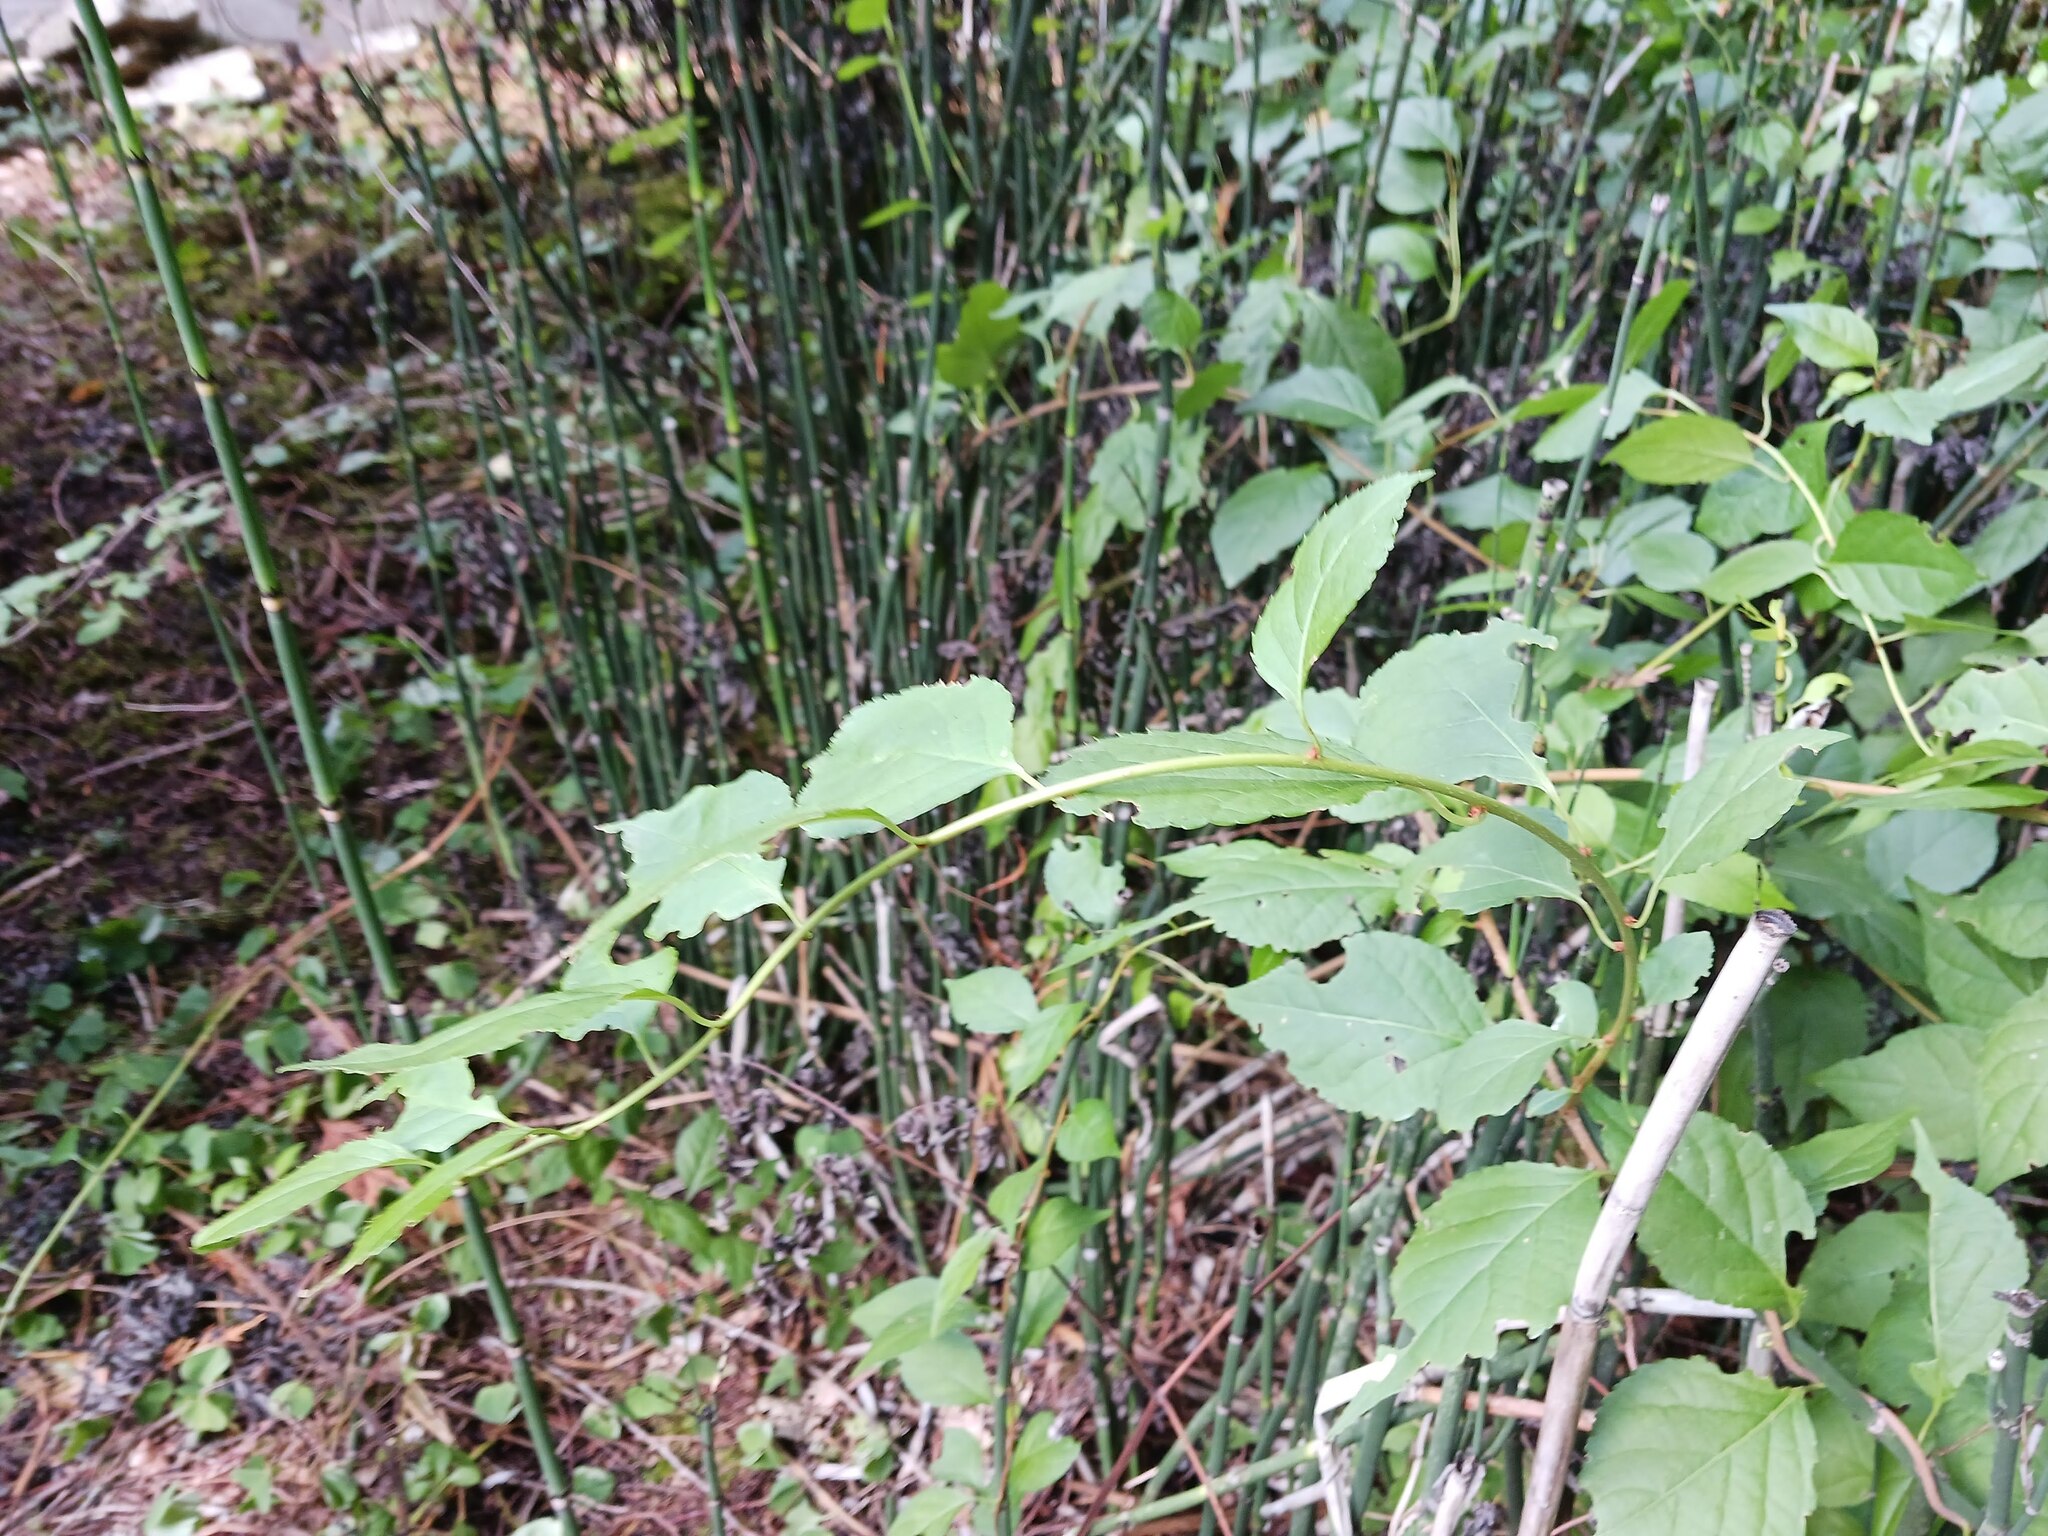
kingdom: Plantae
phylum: Tracheophyta
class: Magnoliopsida
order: Celastrales
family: Celastraceae
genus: Celastrus
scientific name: Celastrus orbiculatus
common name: Oriental bittersweet
